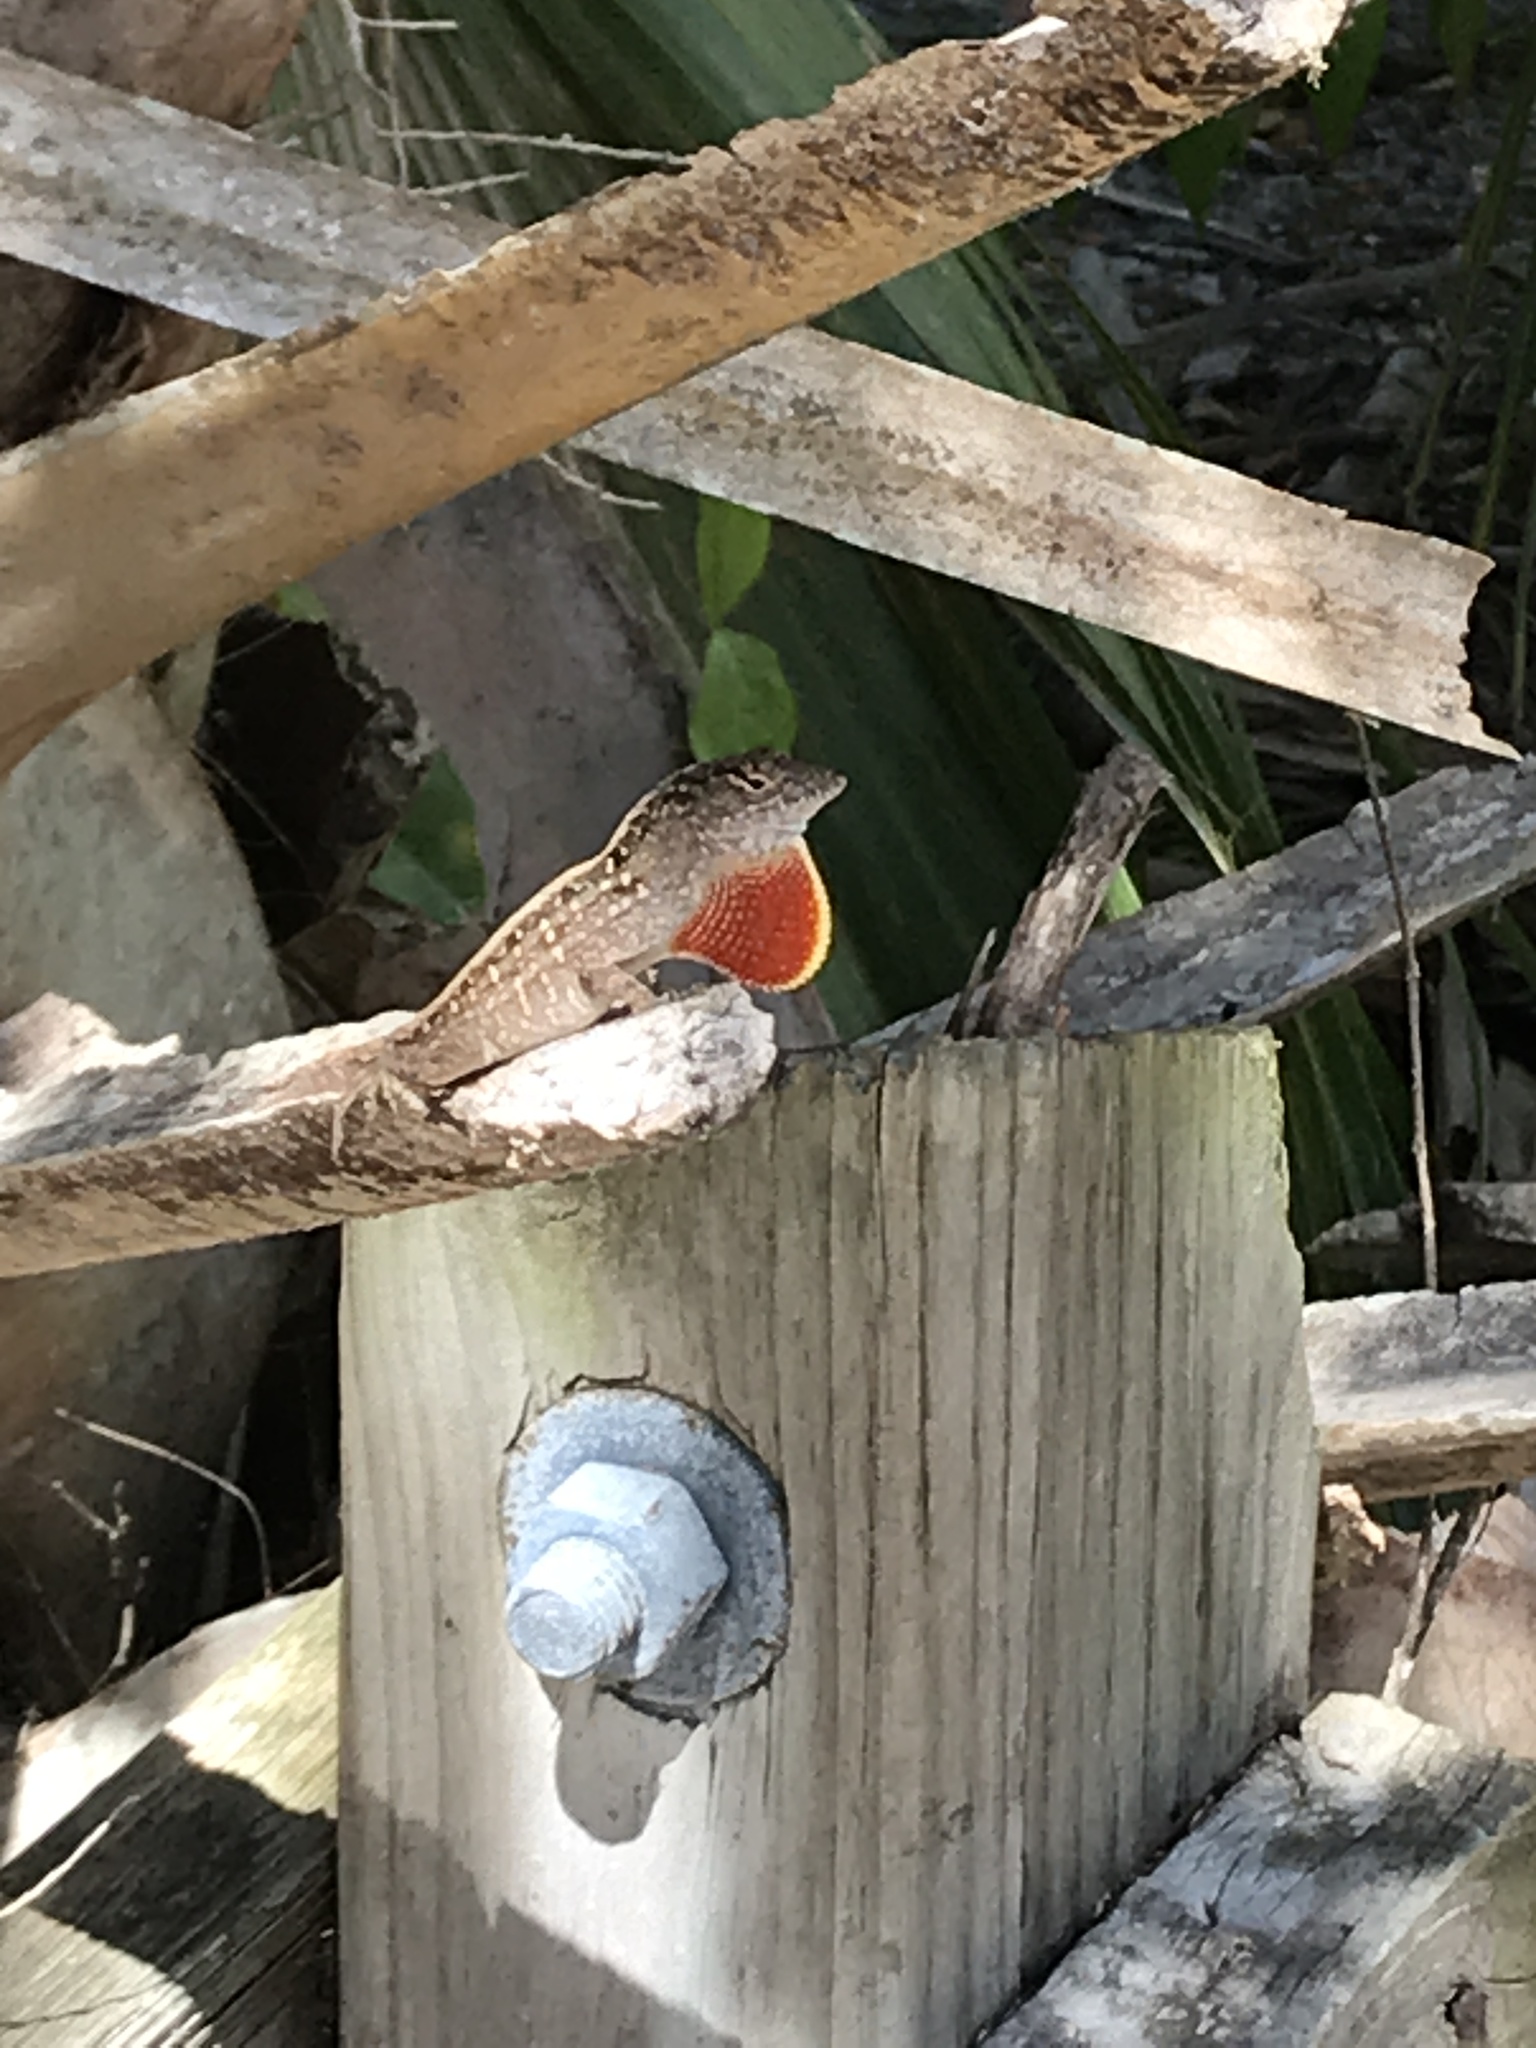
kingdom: Animalia
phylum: Chordata
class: Squamata
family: Dactyloidae
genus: Anolis
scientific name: Anolis sagrei
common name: Brown anole
